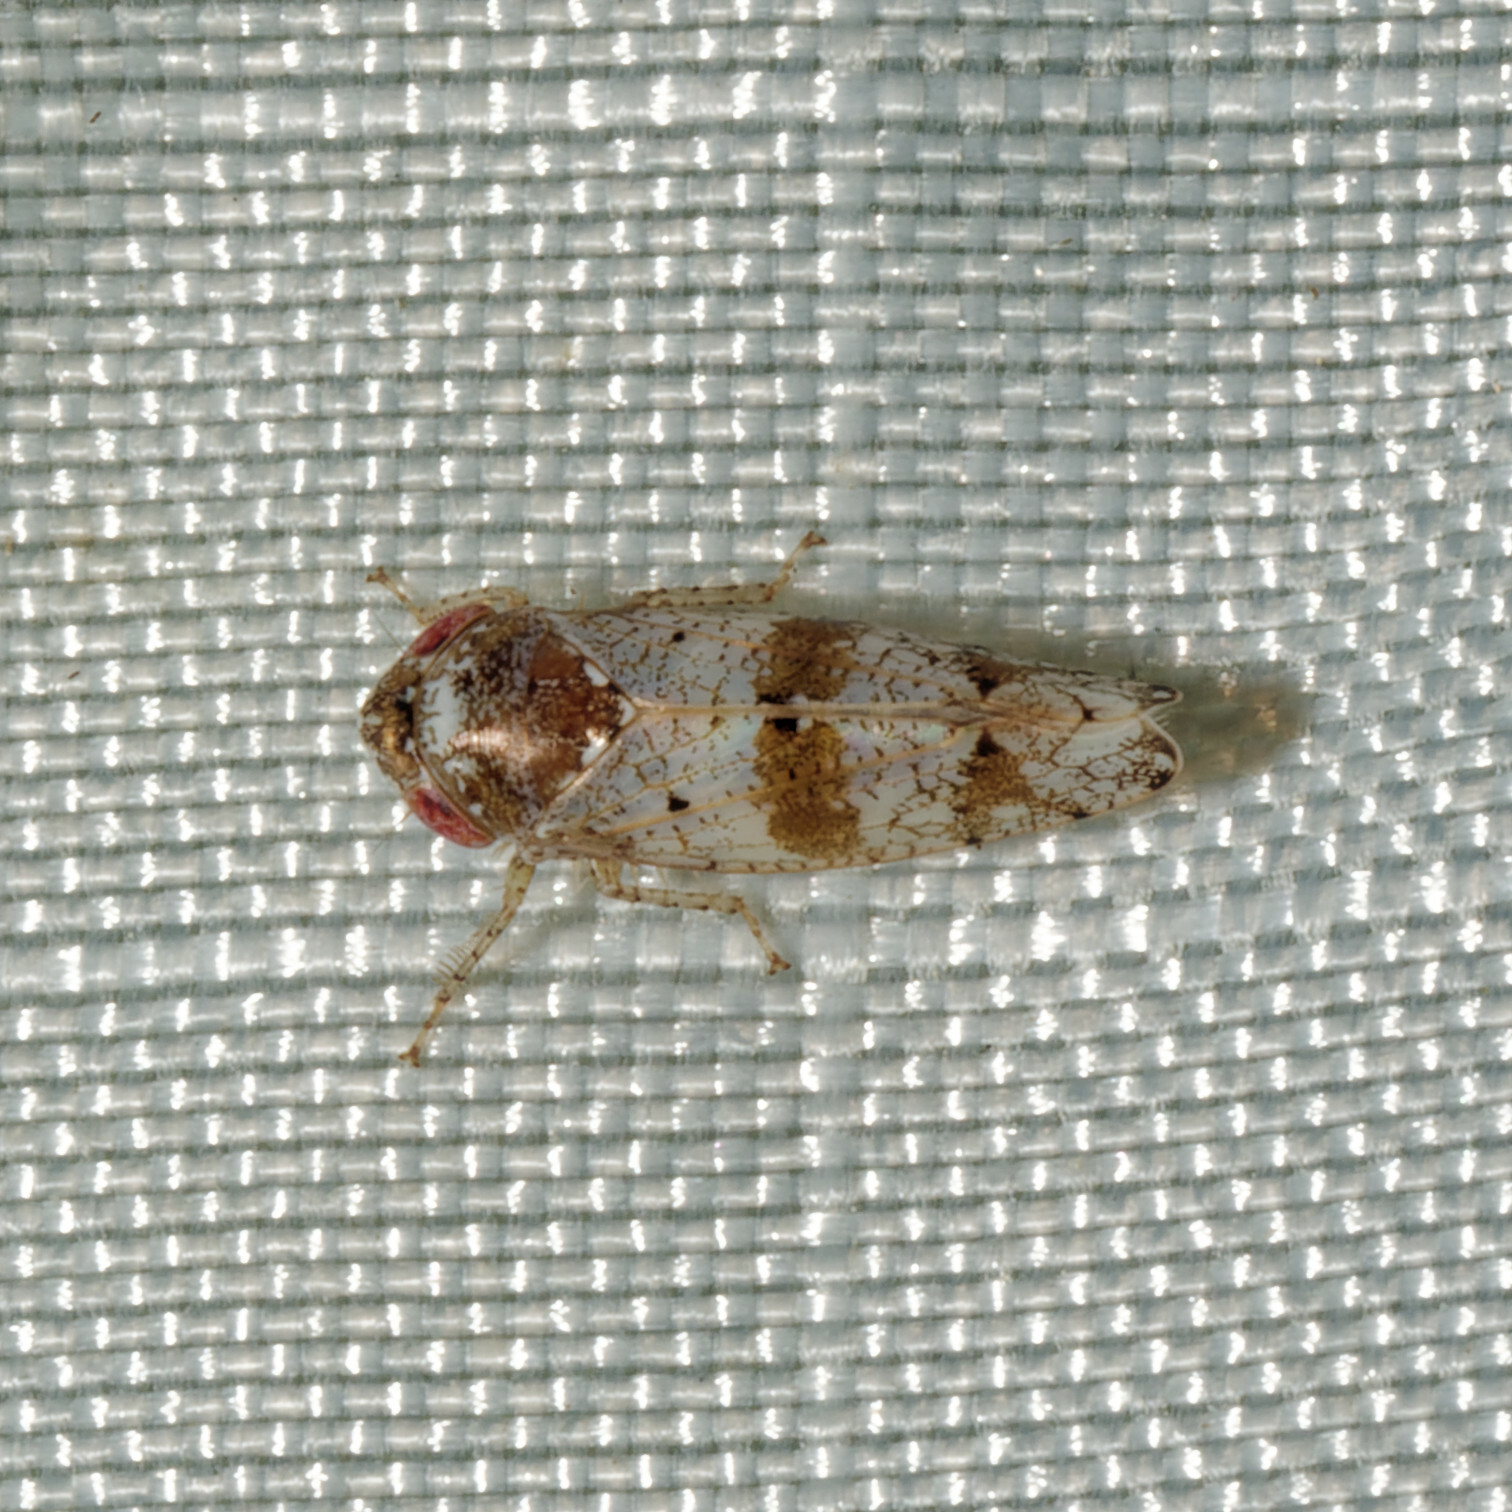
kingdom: Animalia
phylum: Arthropoda
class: Insecta
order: Hemiptera
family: Cicadellidae
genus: Pendarus
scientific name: Pendarus auroalbus
